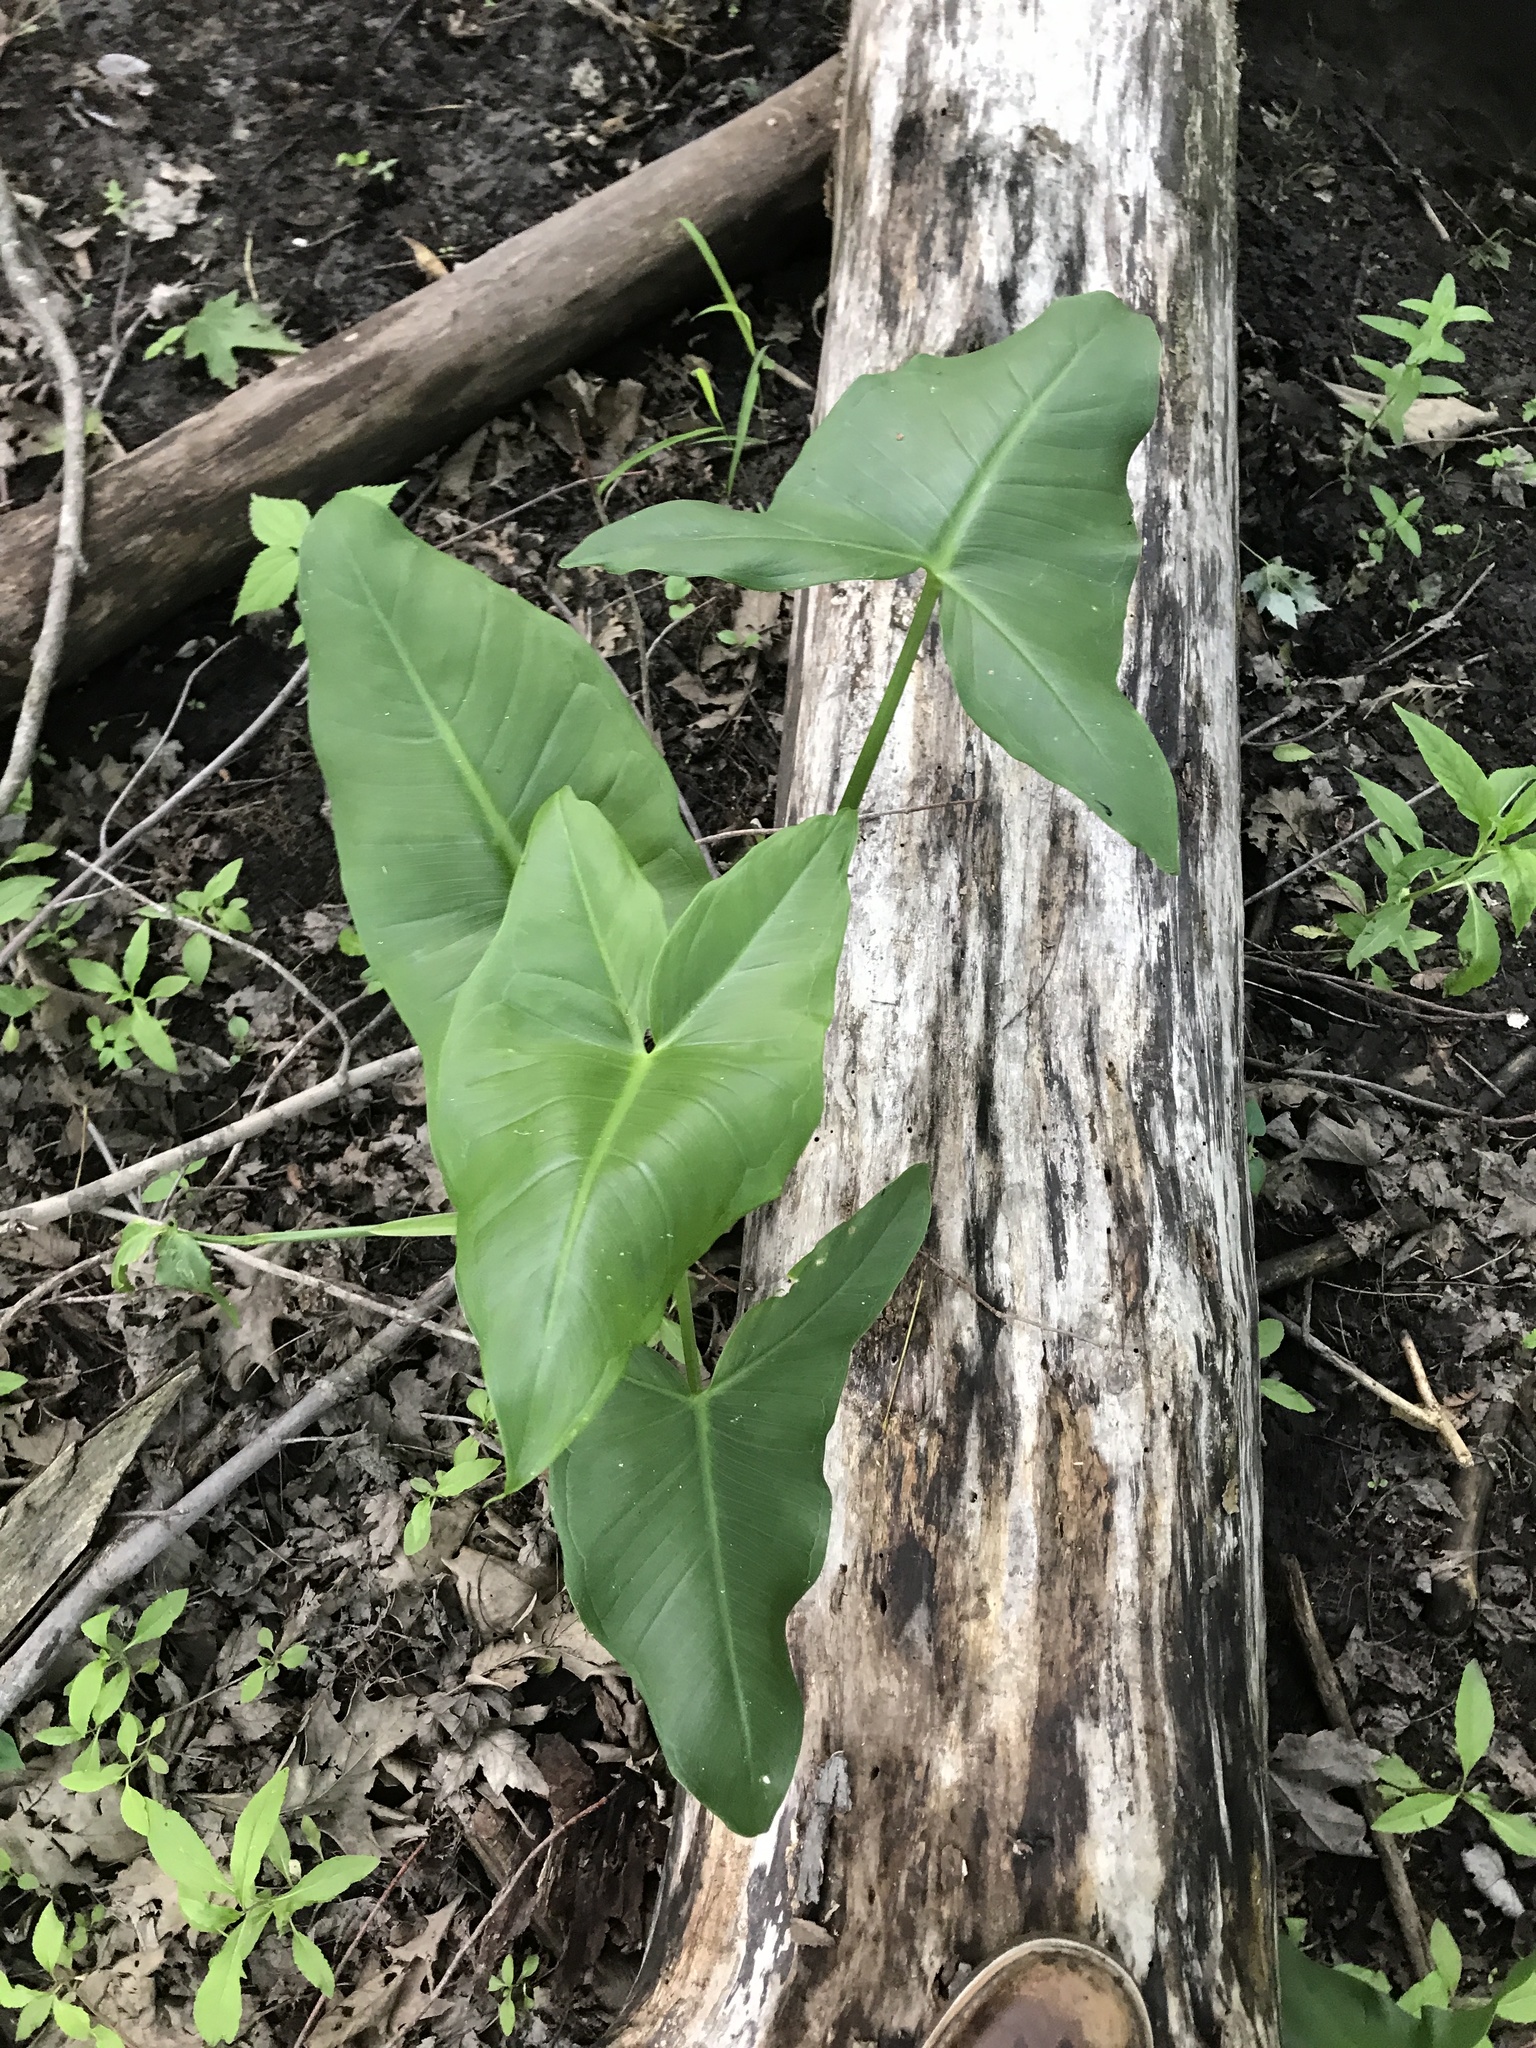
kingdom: Plantae
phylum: Tracheophyta
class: Liliopsida
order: Alismatales
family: Araceae
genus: Peltandra
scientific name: Peltandra virginica
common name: Arrow arum
